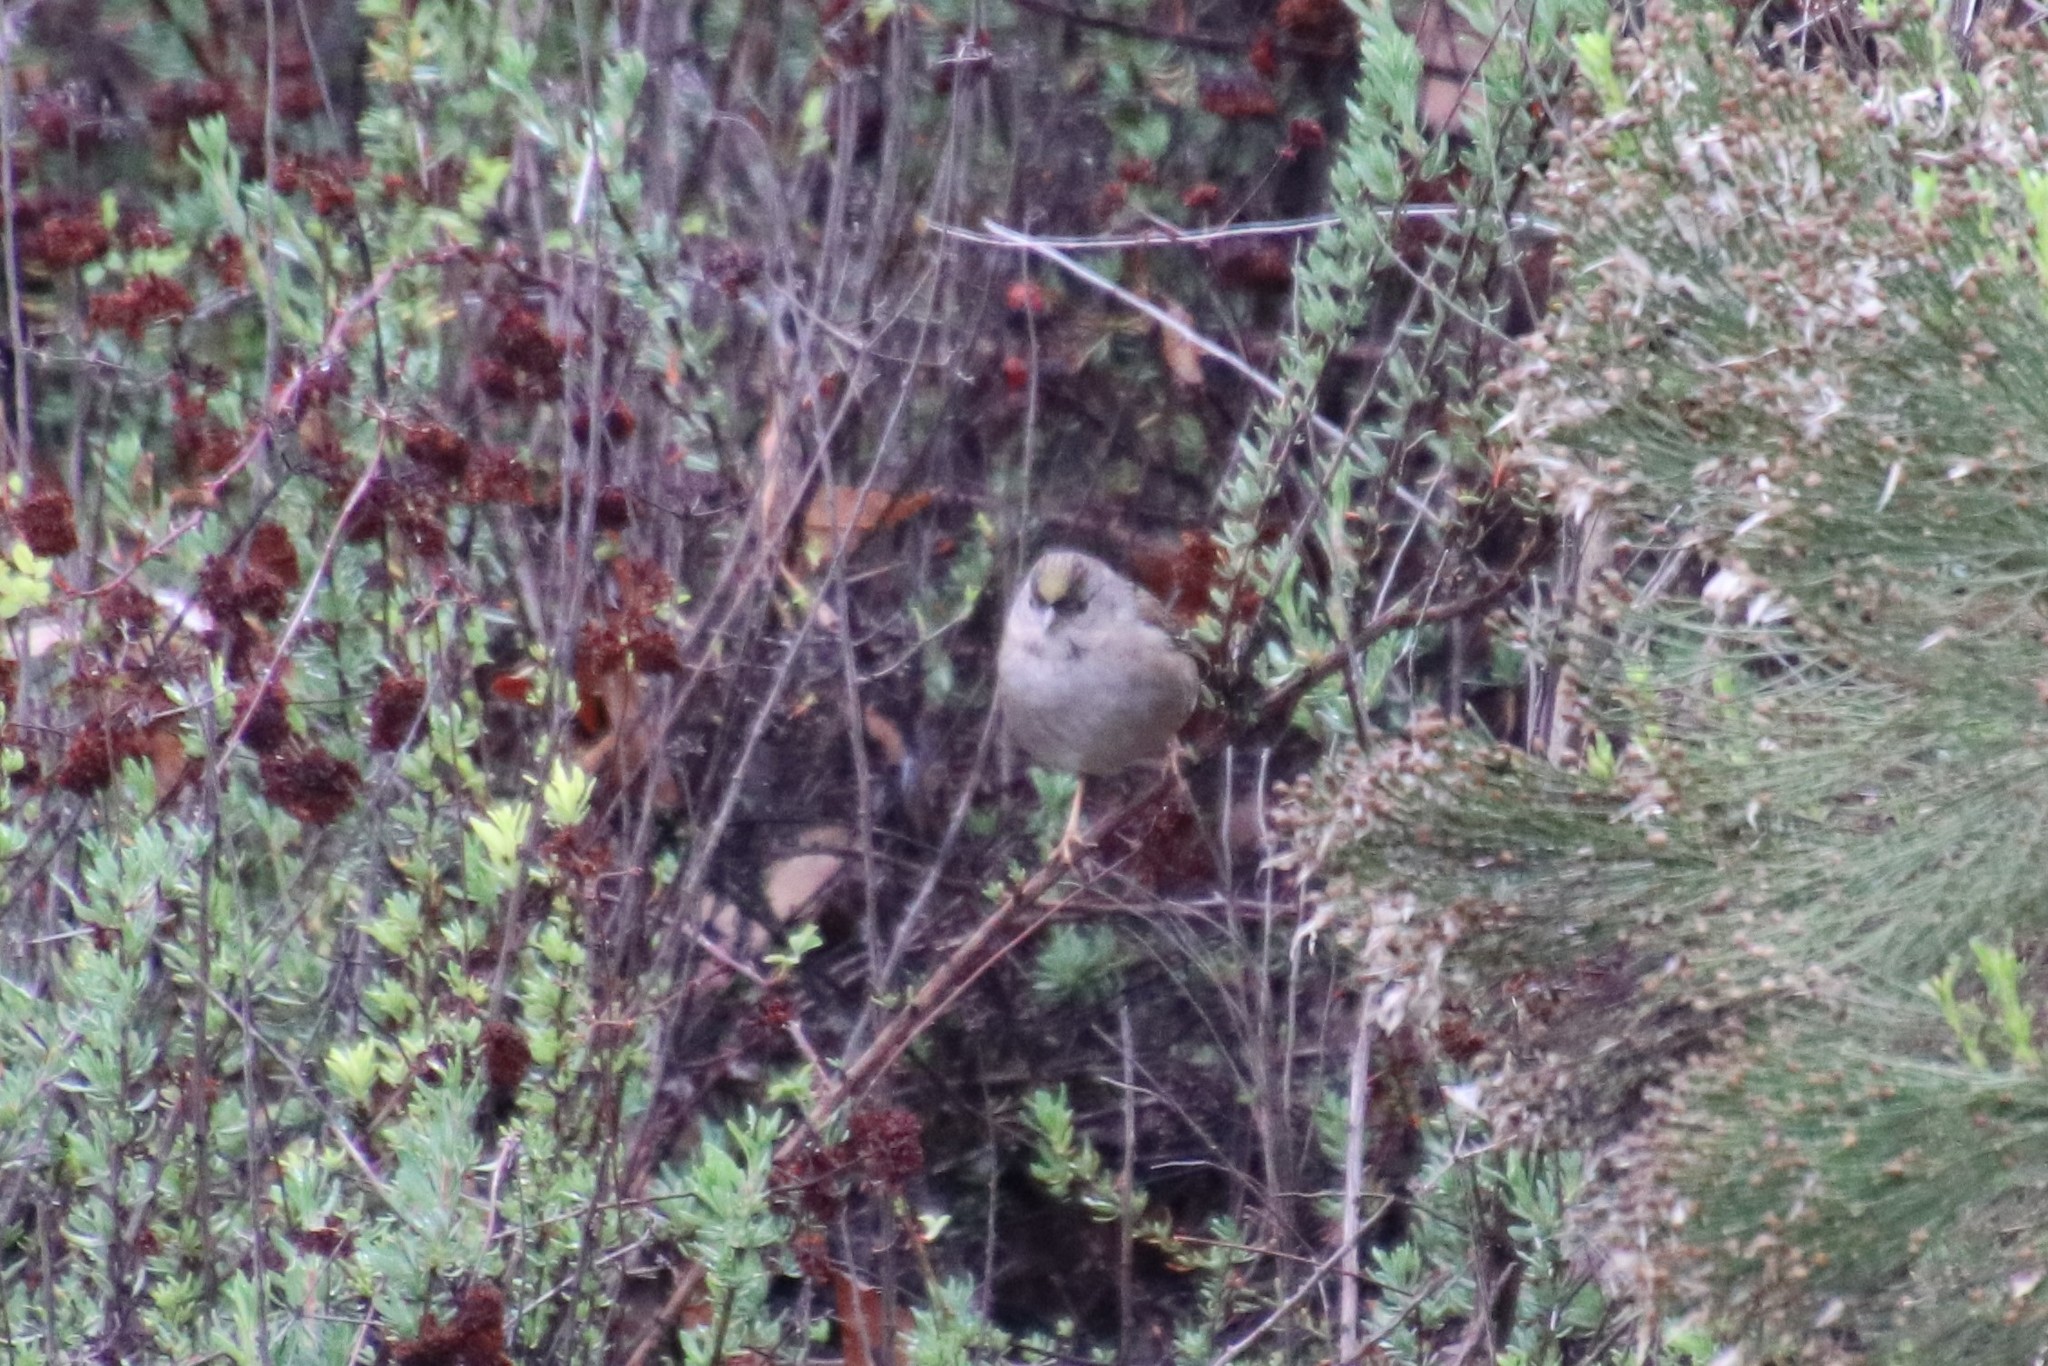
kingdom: Animalia
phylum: Chordata
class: Aves
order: Passeriformes
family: Passerellidae
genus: Zonotrichia
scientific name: Zonotrichia atricapilla
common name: Golden-crowned sparrow
